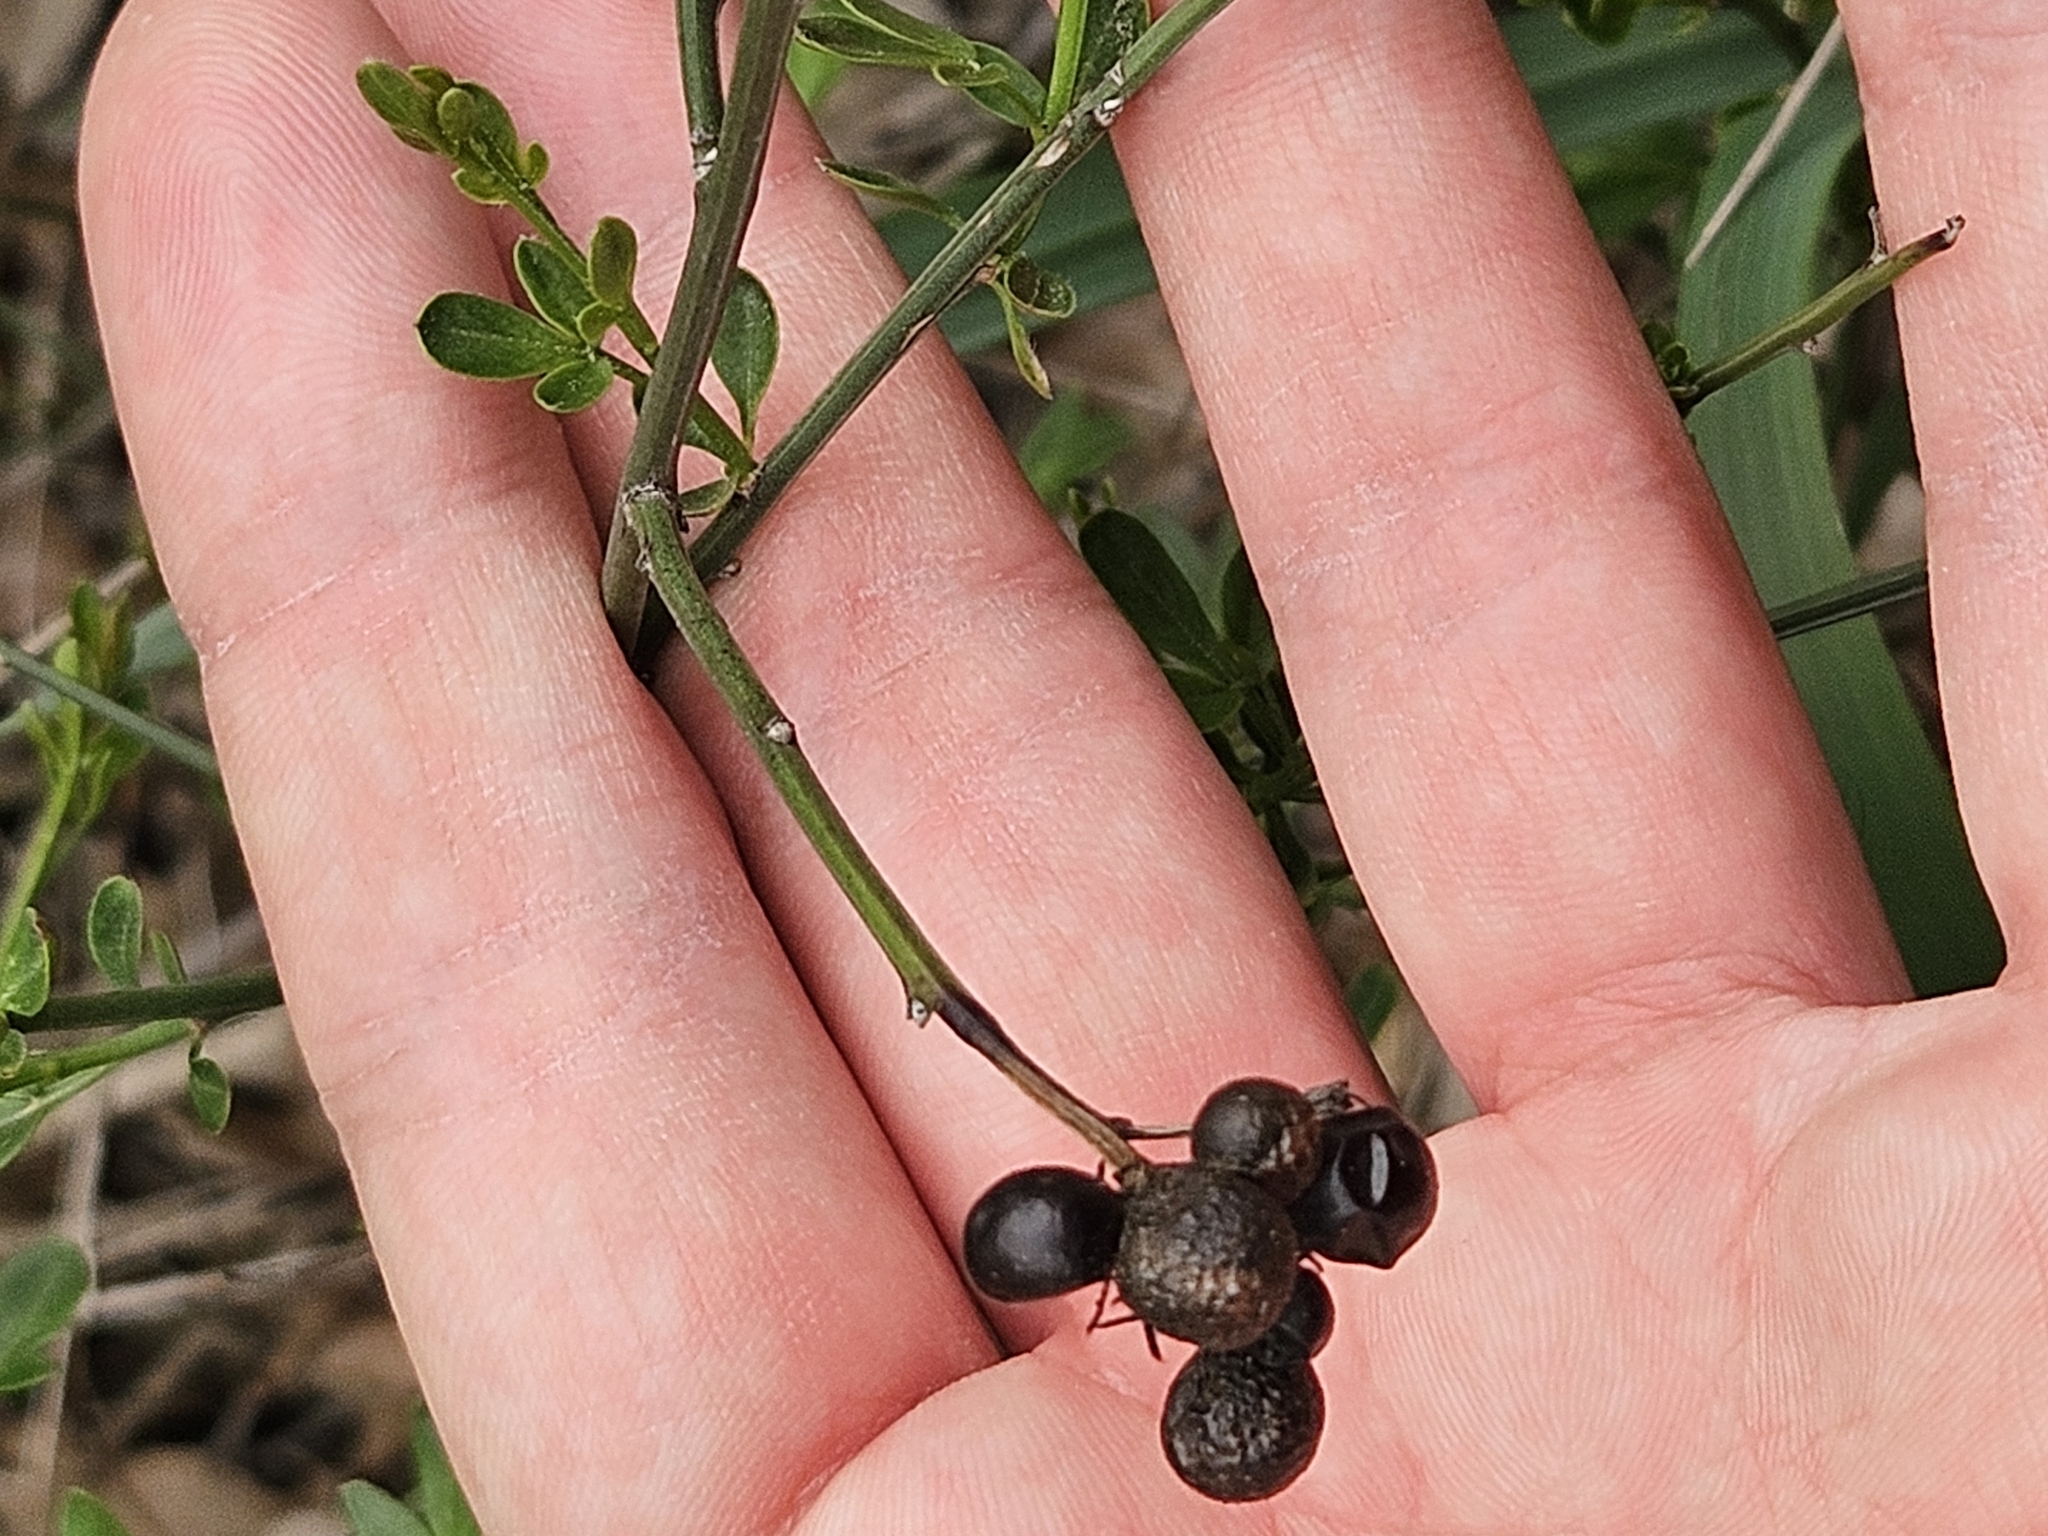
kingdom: Plantae
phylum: Tracheophyta
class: Magnoliopsida
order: Lamiales
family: Oleaceae
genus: Chrysojasminum
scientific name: Chrysojasminum fruticans
